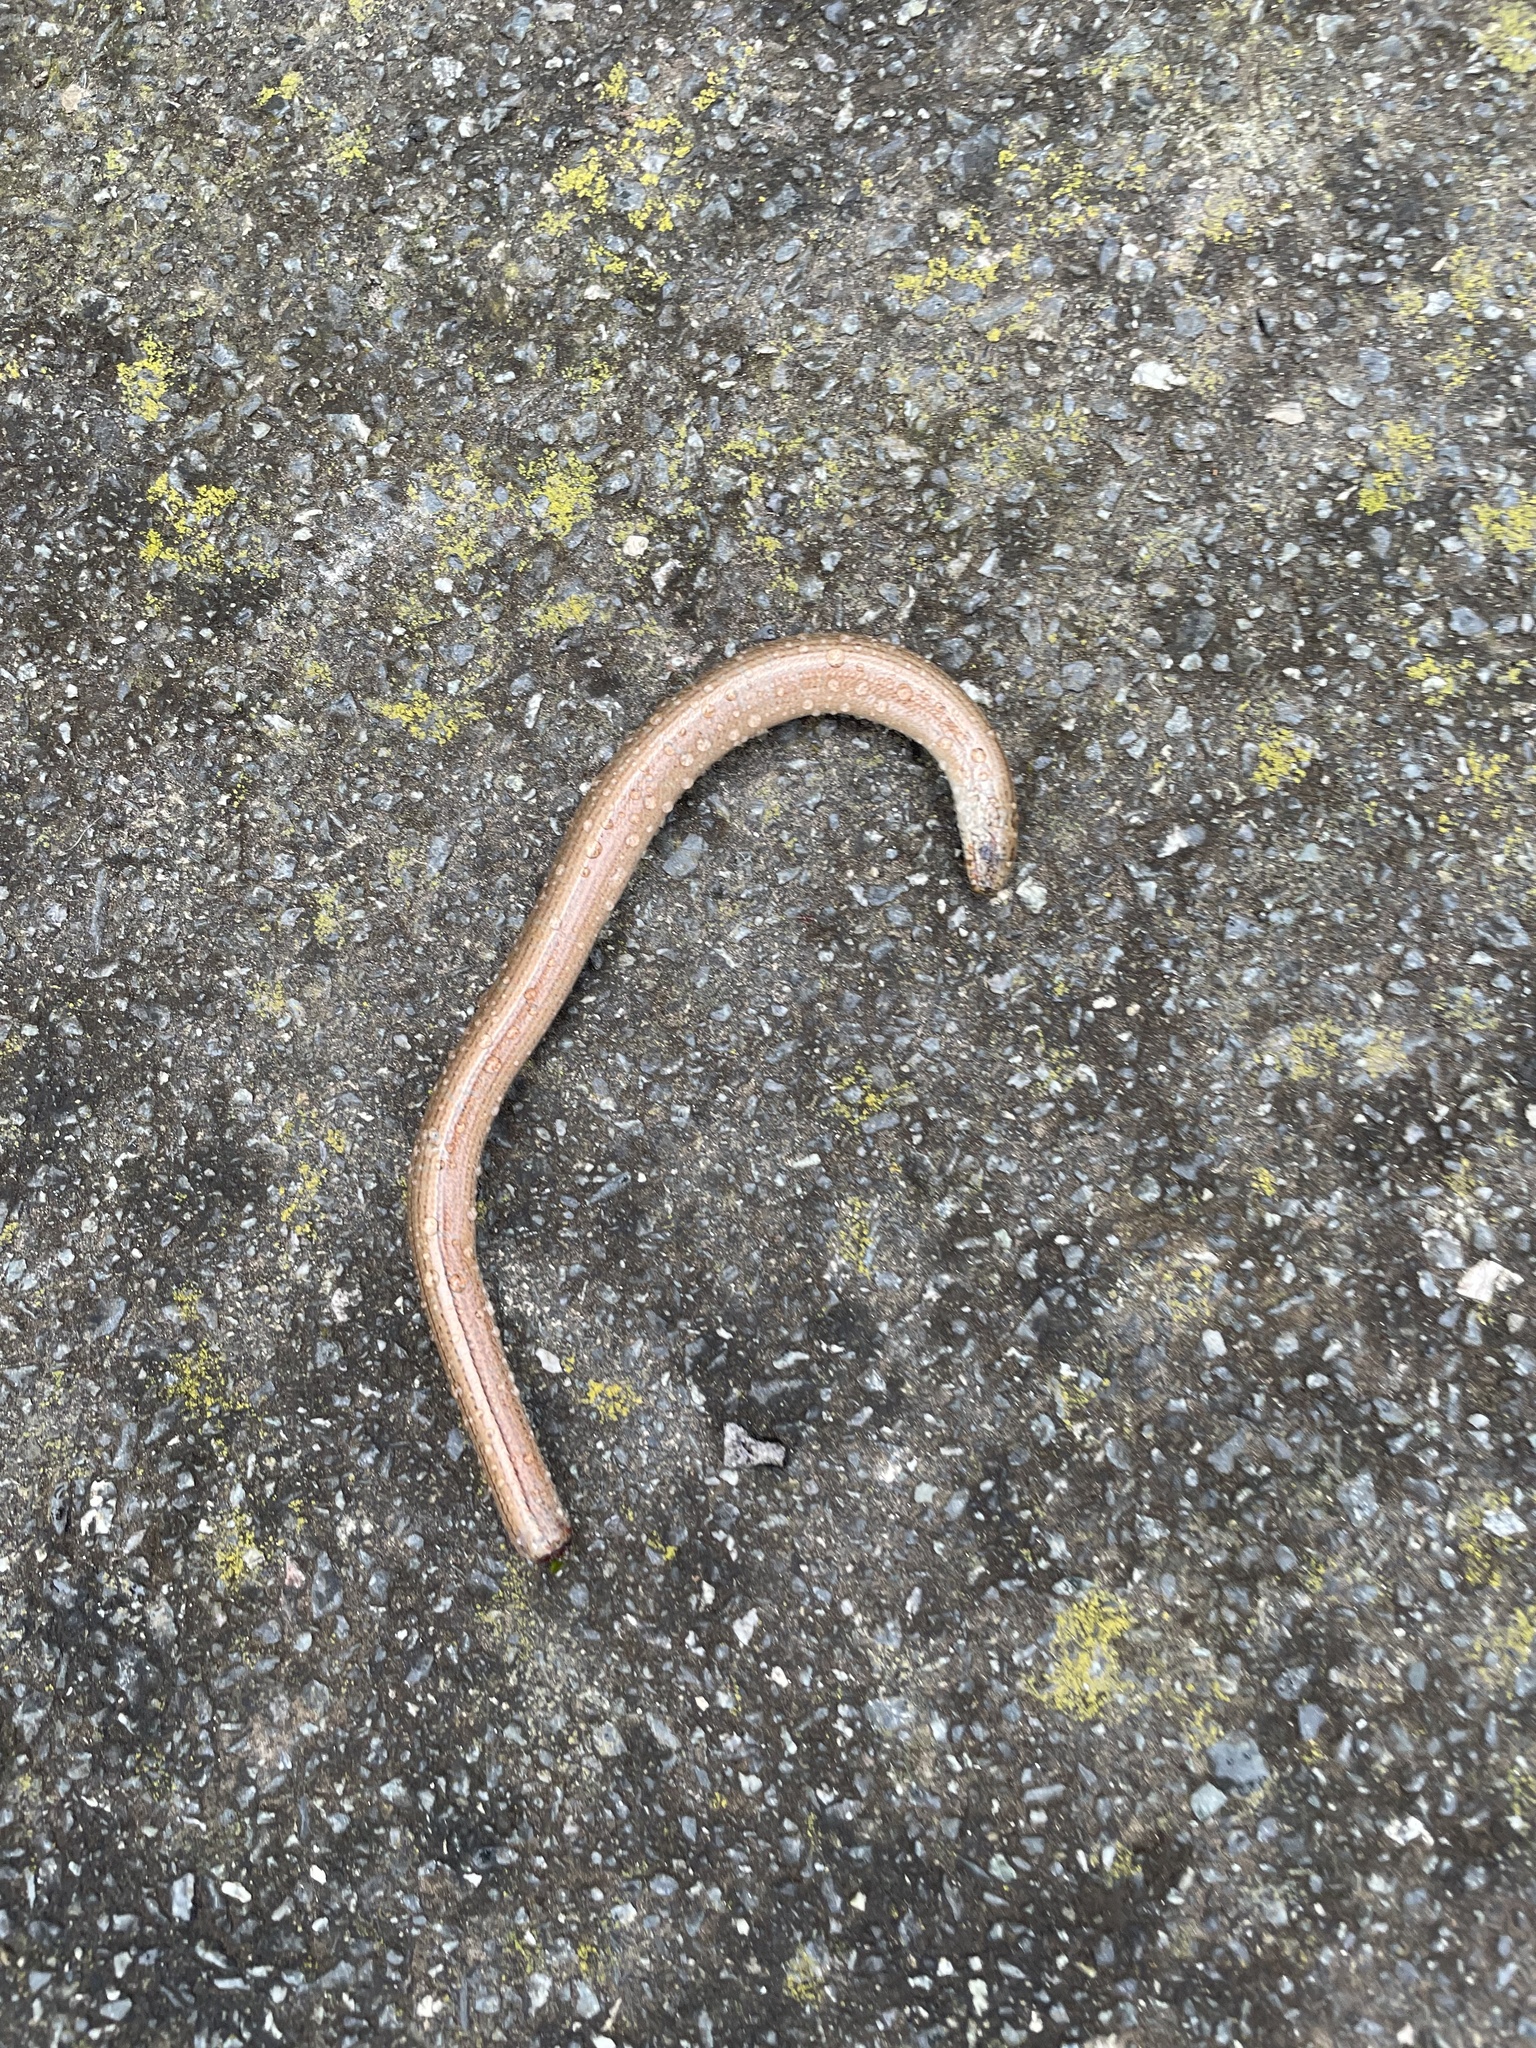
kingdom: Animalia
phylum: Chordata
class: Squamata
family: Anguidae
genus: Anguis
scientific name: Anguis fragilis
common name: Slow worm
